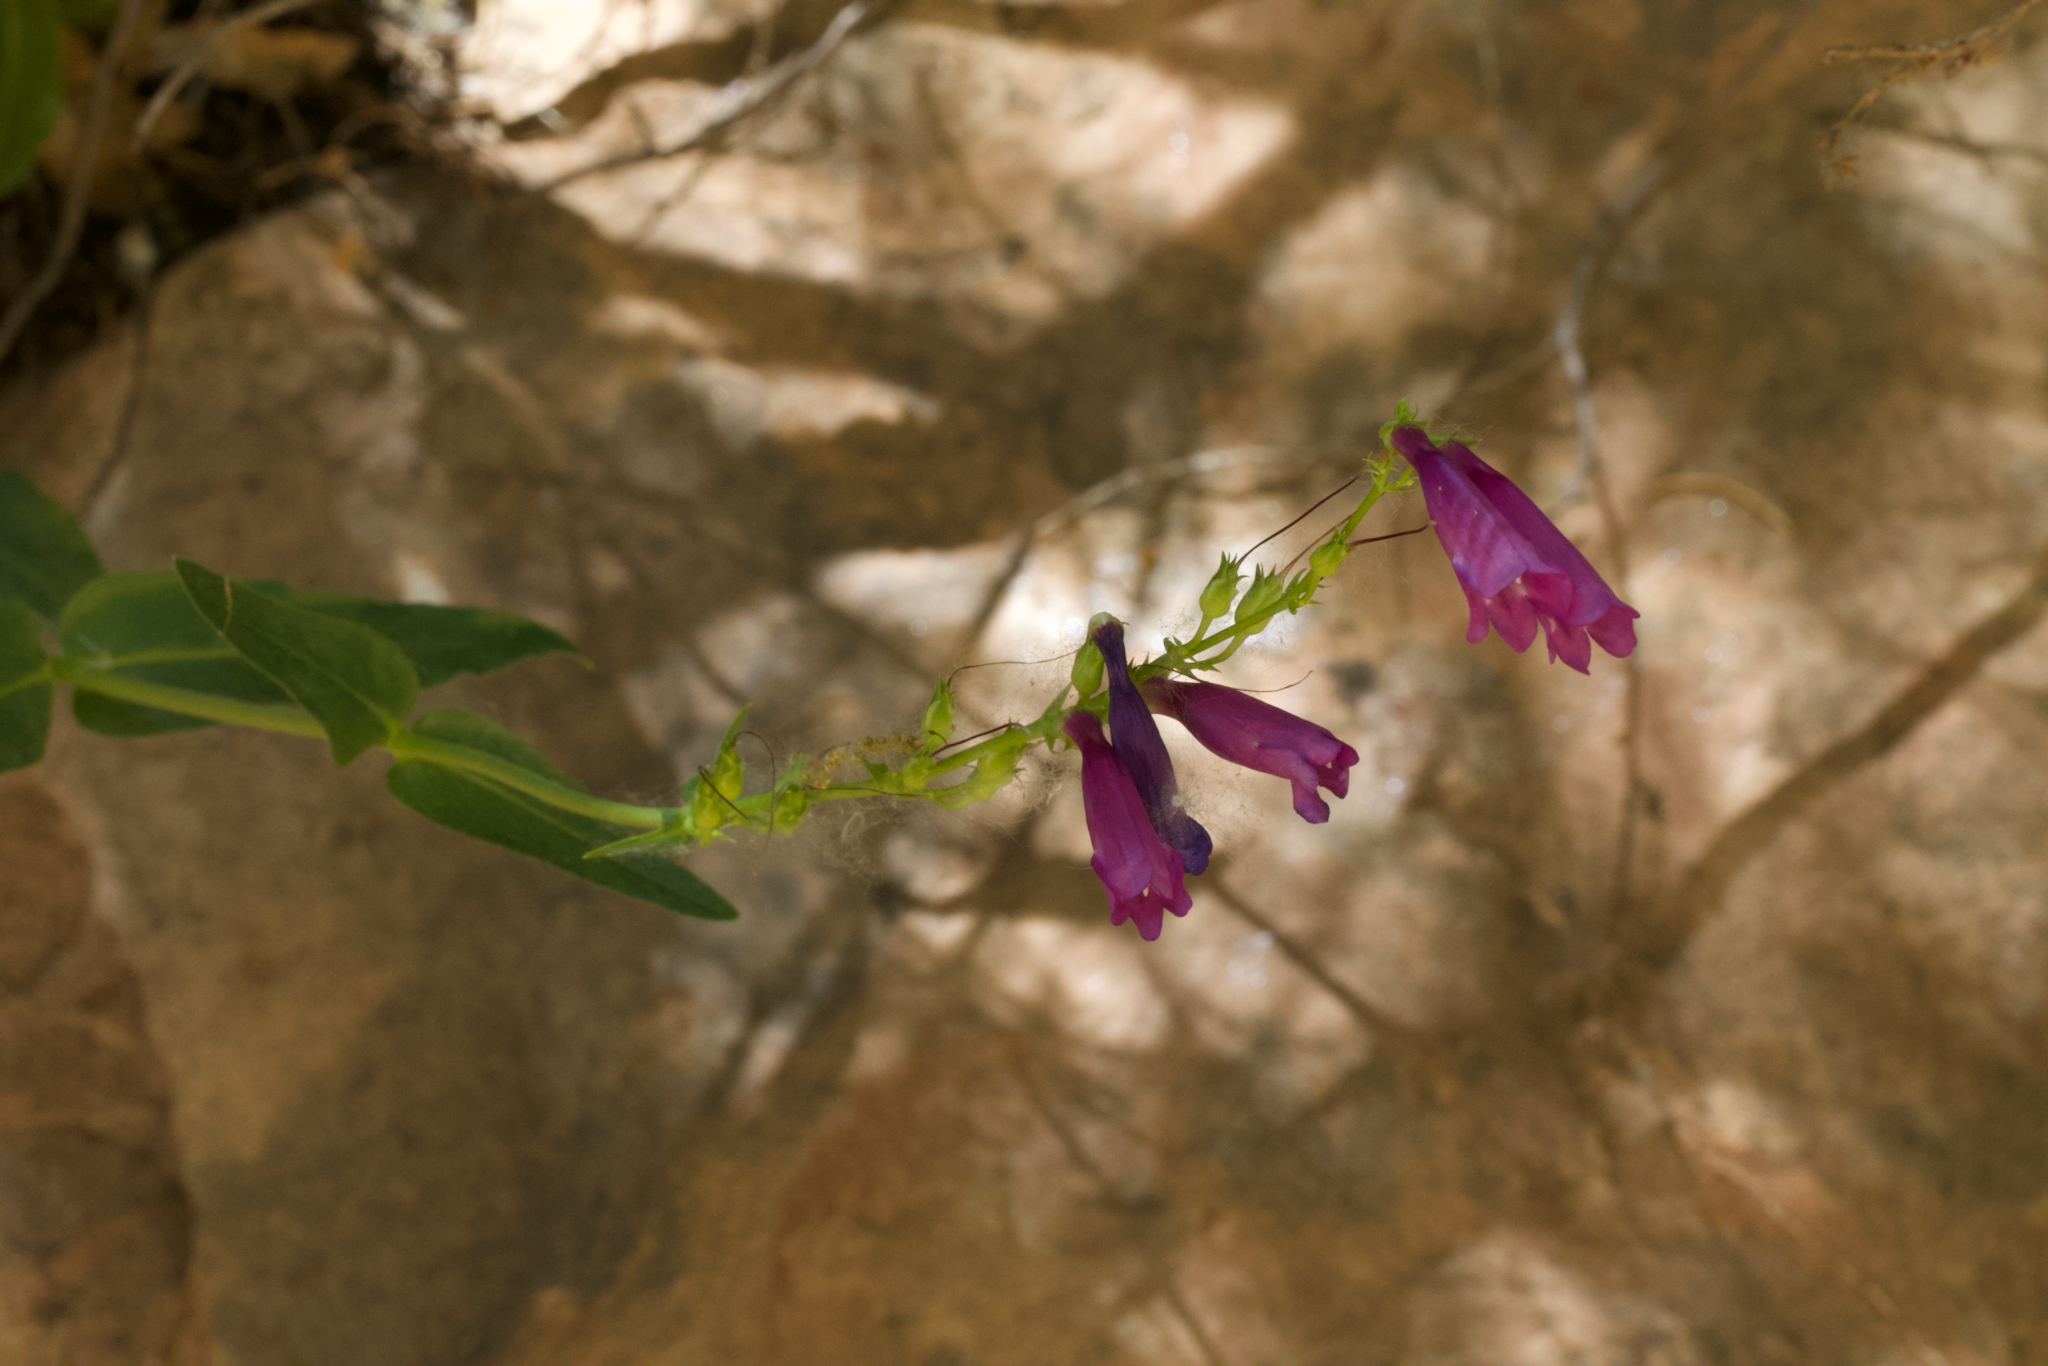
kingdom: Plantae
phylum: Tracheophyta
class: Magnoliopsida
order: Lamiales
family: Plantaginaceae
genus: Penstemon
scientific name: Penstemon jonesii
